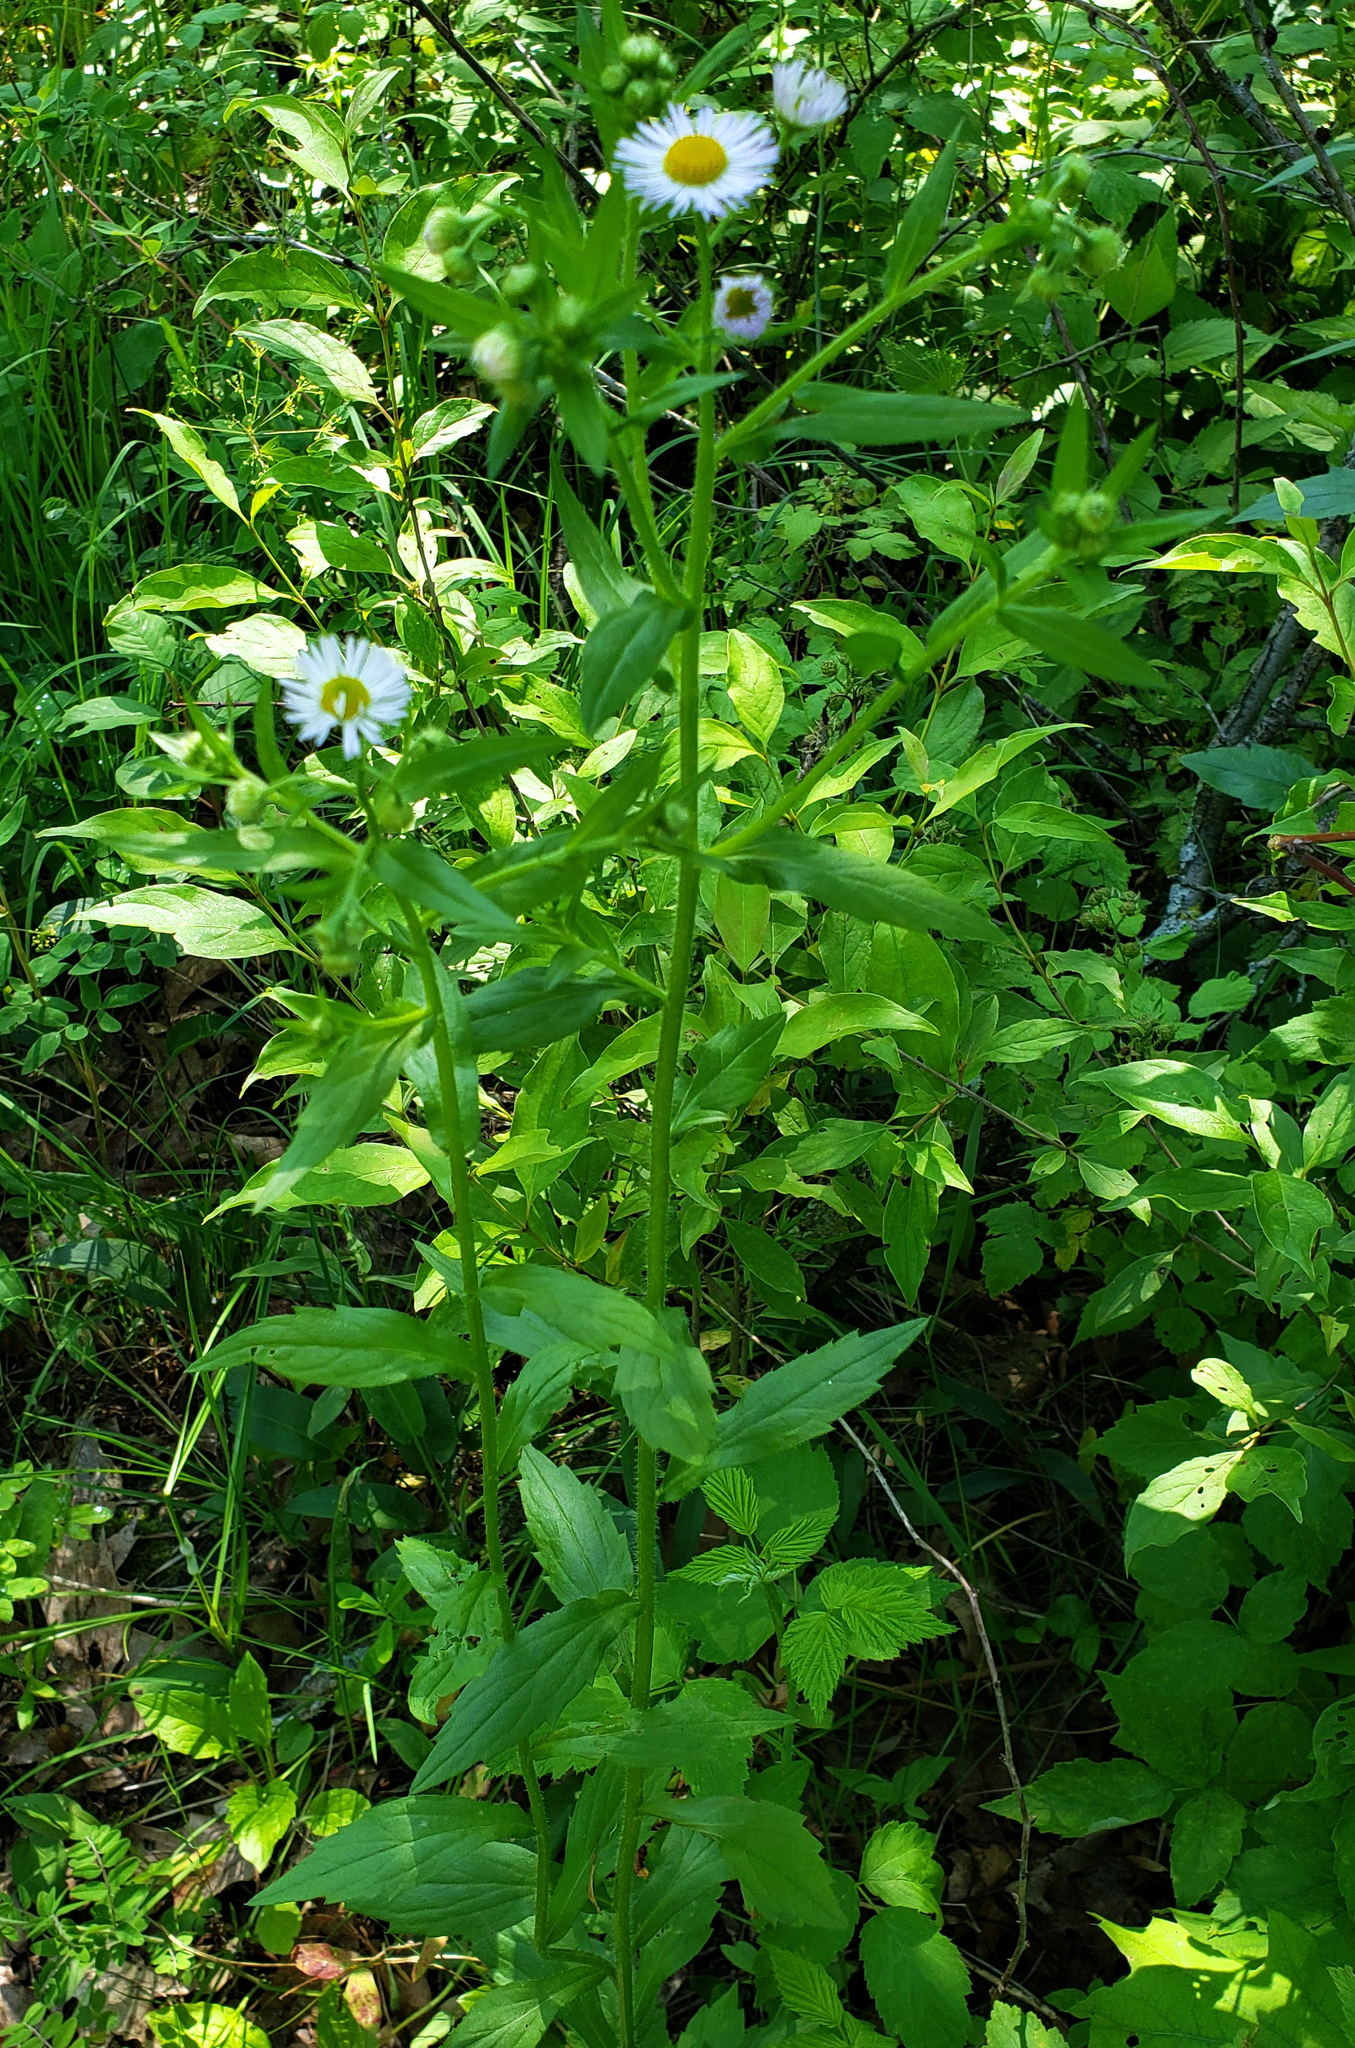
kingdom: Plantae
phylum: Tracheophyta
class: Magnoliopsida
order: Asterales
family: Asteraceae
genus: Erigeron
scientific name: Erigeron annuus
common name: Tall fleabane
